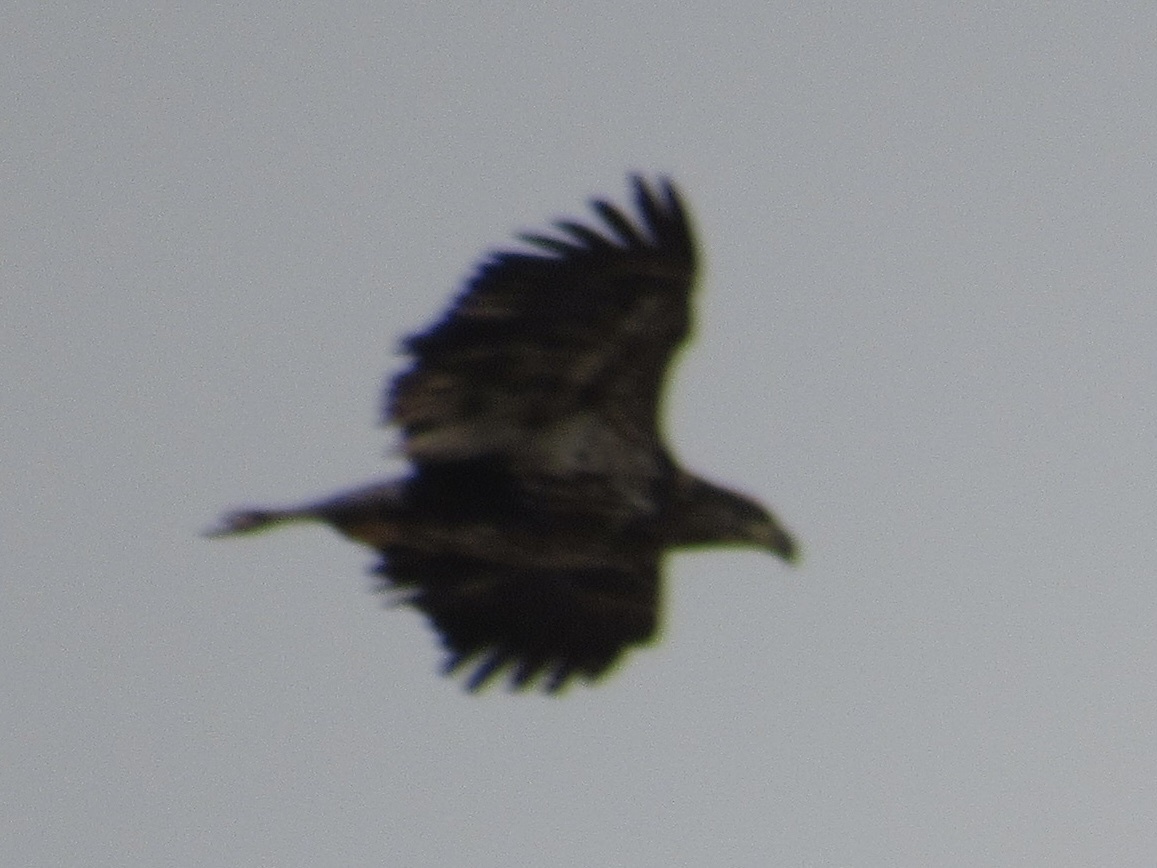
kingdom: Animalia
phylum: Chordata
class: Aves
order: Accipitriformes
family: Accipitridae
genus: Haliaeetus
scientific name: Haliaeetus leucocephalus
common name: Bald eagle
